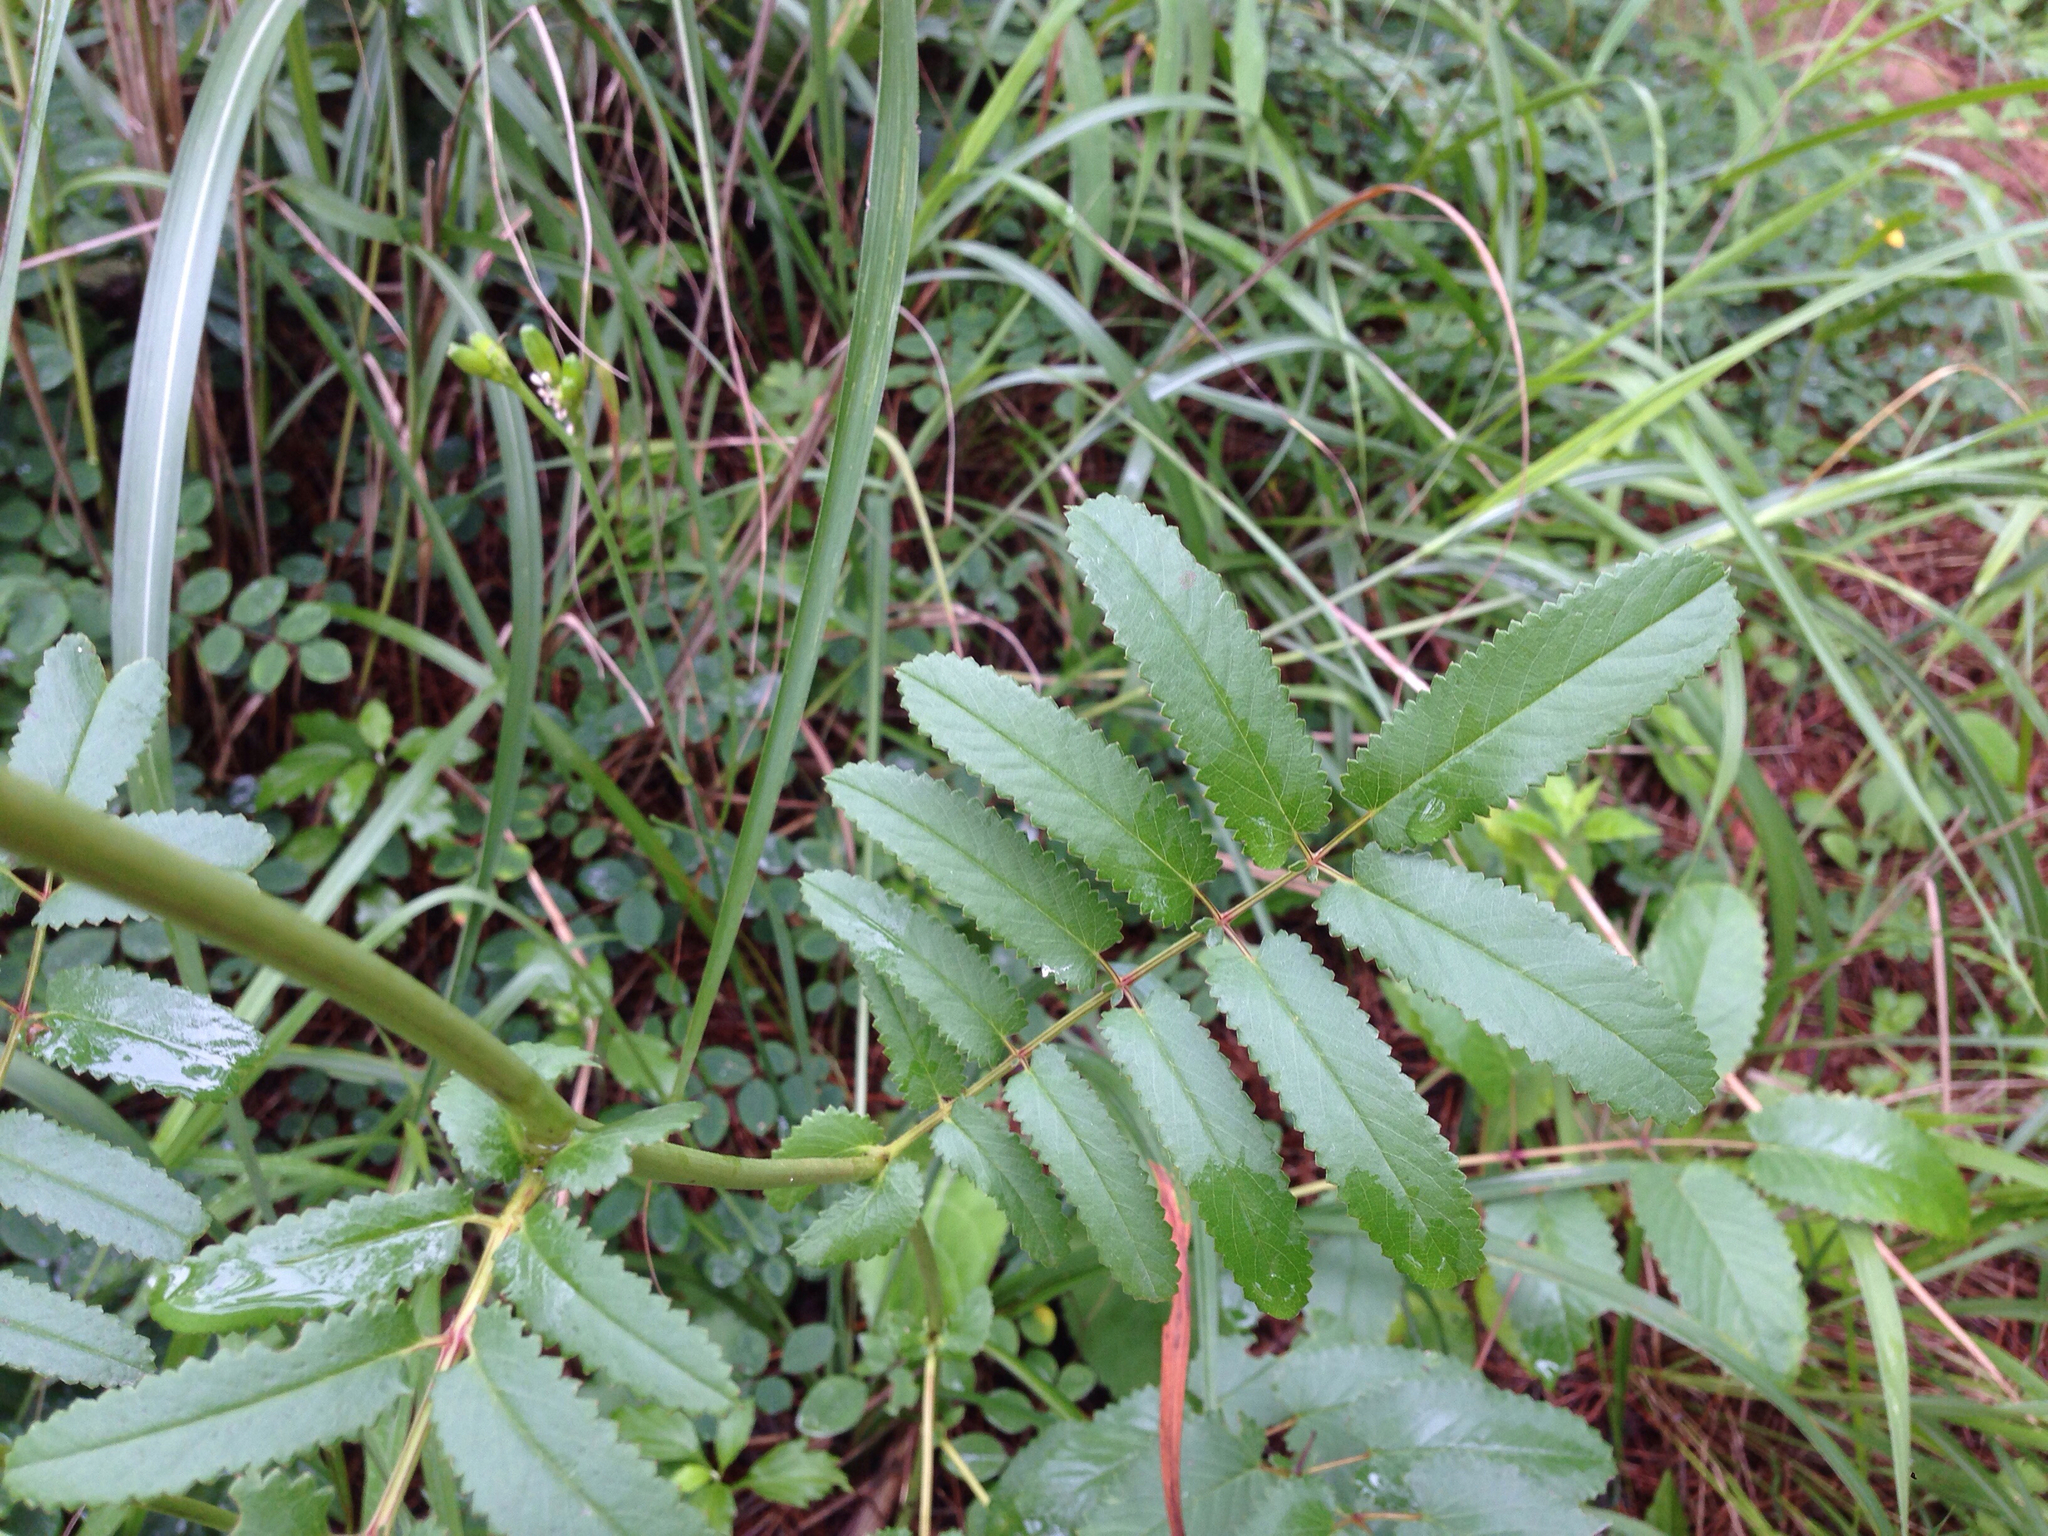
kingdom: Plantae
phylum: Tracheophyta
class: Magnoliopsida
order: Rosales
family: Rosaceae
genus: Sanguisorba
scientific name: Sanguisorba officinalis
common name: Great burnet
